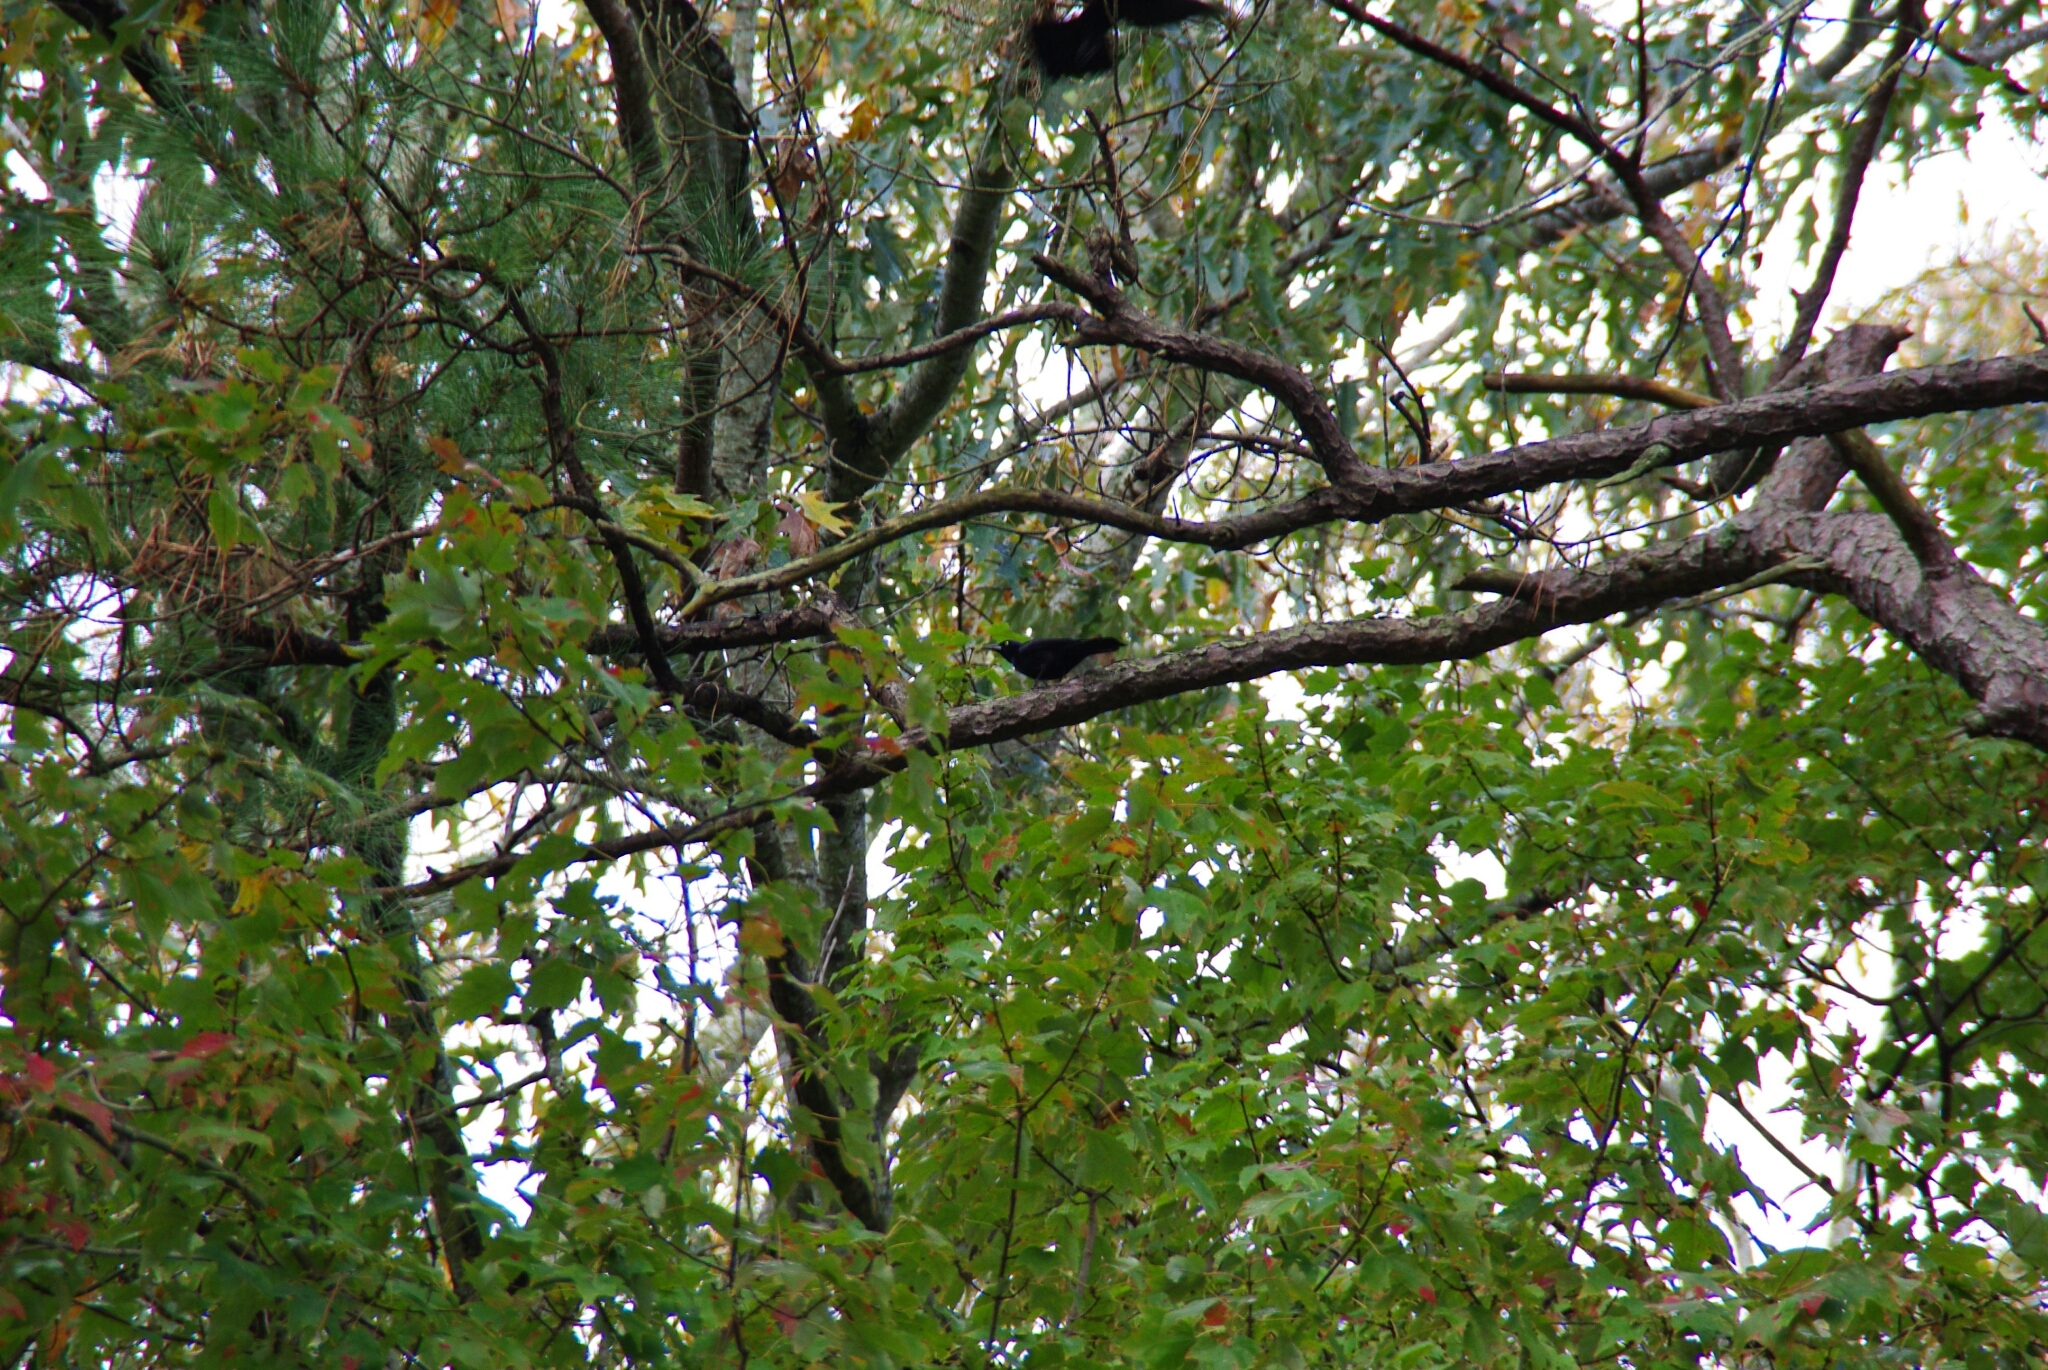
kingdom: Animalia
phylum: Chordata
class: Aves
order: Passeriformes
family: Icteridae
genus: Quiscalus
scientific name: Quiscalus quiscula
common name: Common grackle
